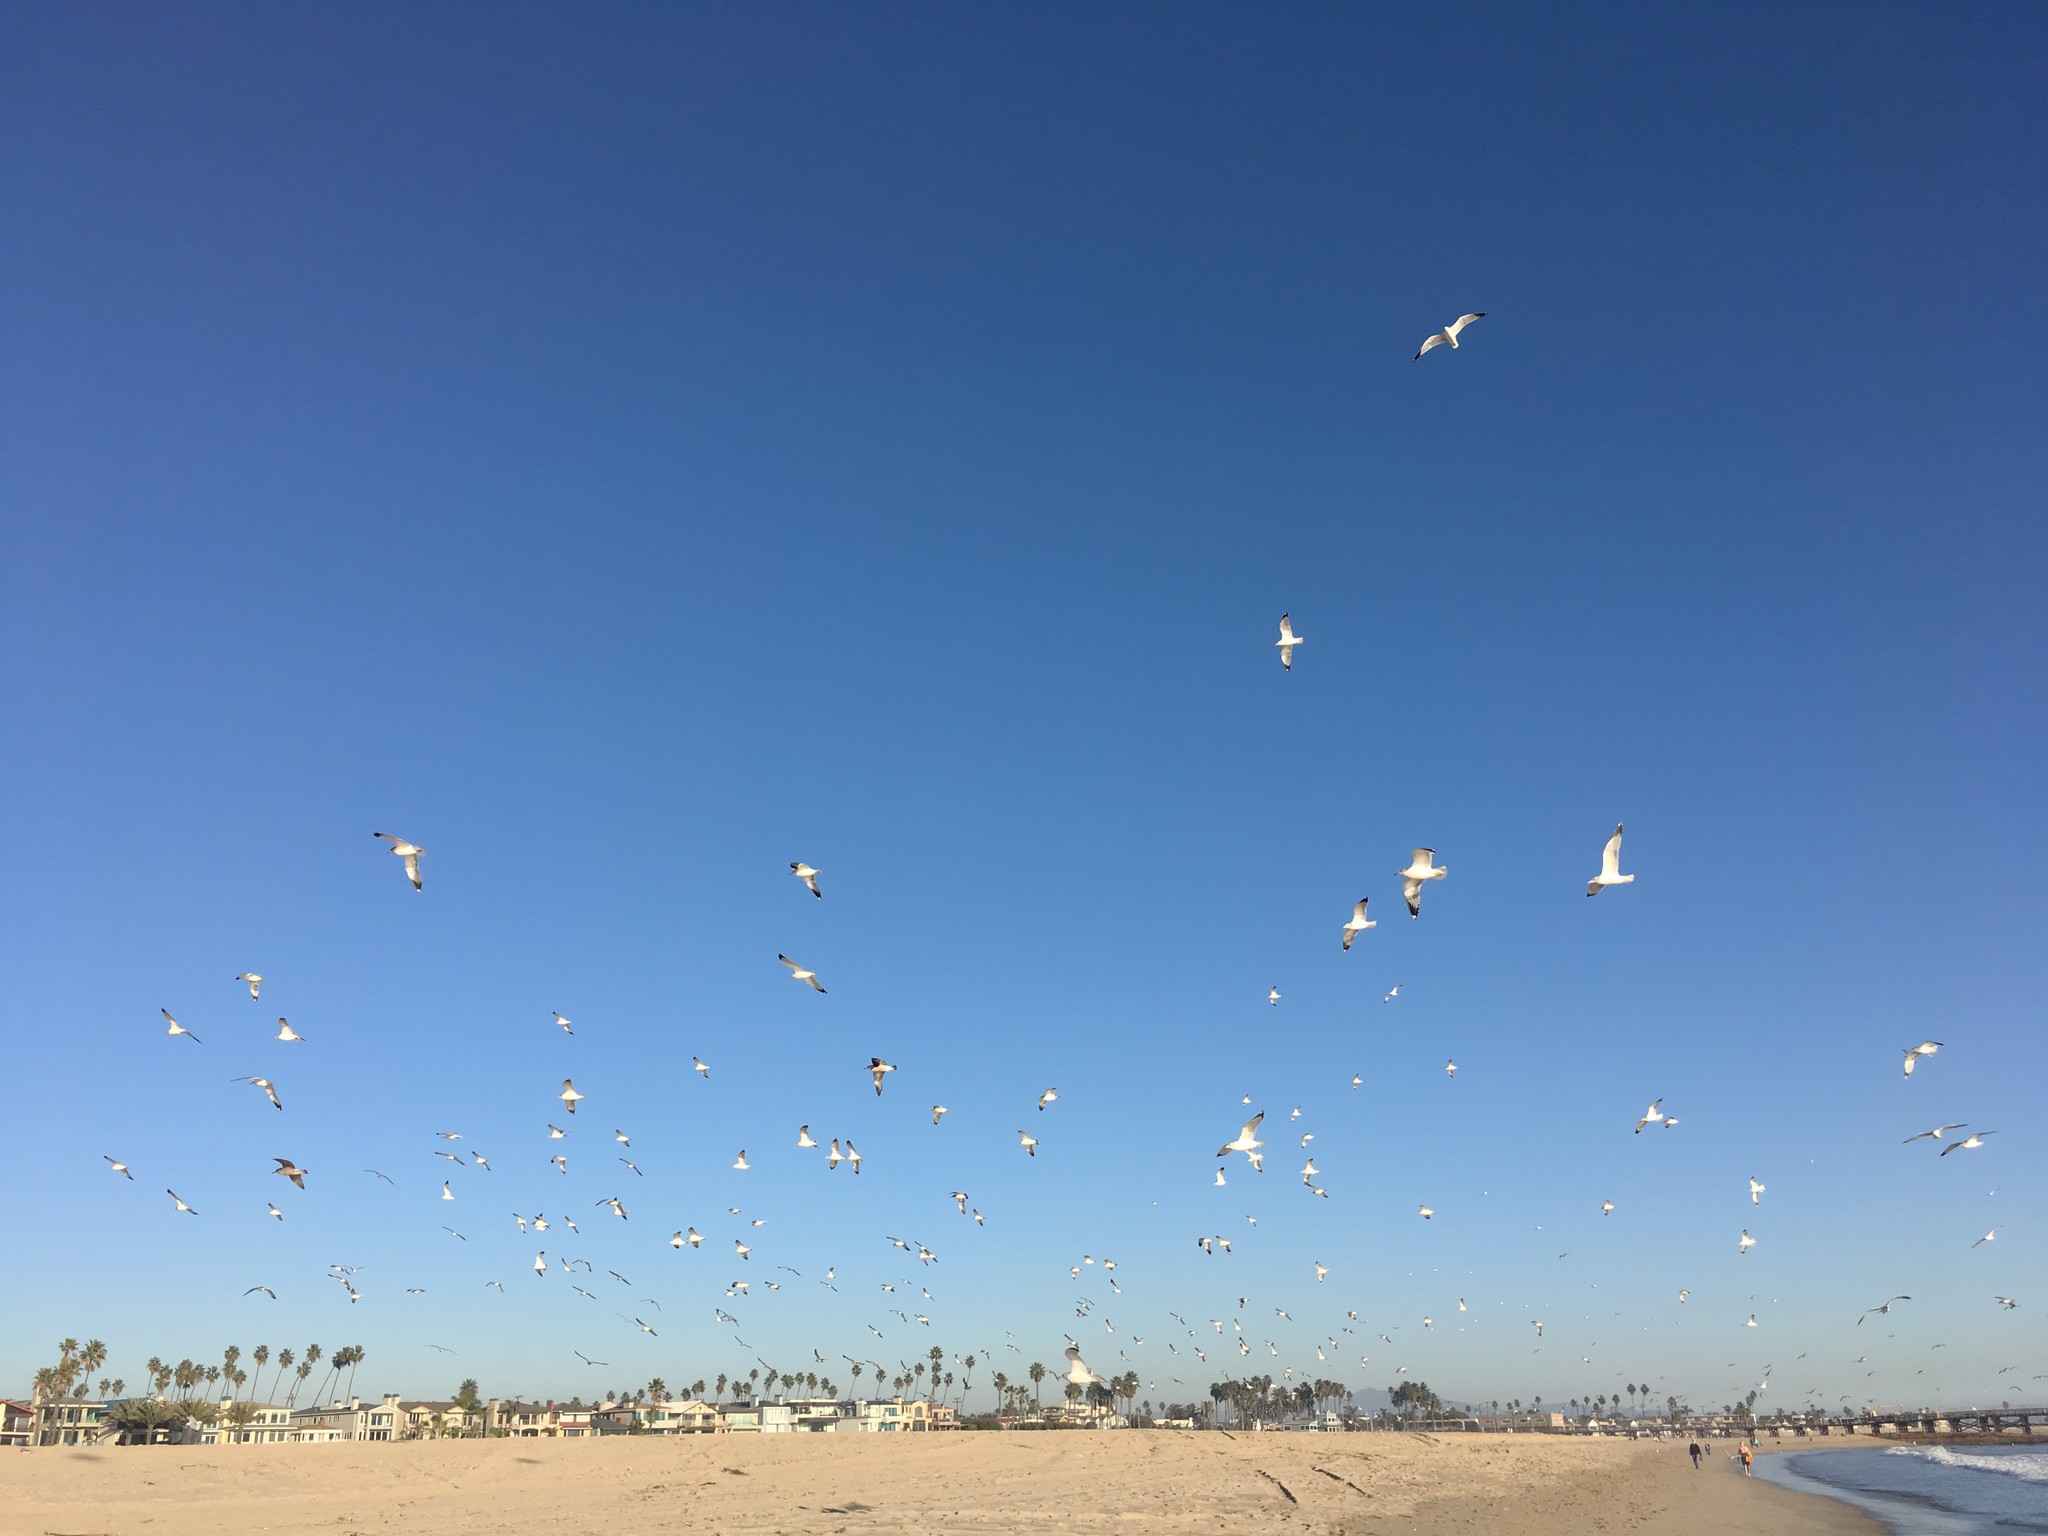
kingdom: Animalia
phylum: Chordata
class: Aves
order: Charadriiformes
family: Laridae
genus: Larus
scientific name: Larus delawarensis
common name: Ring-billed gull
